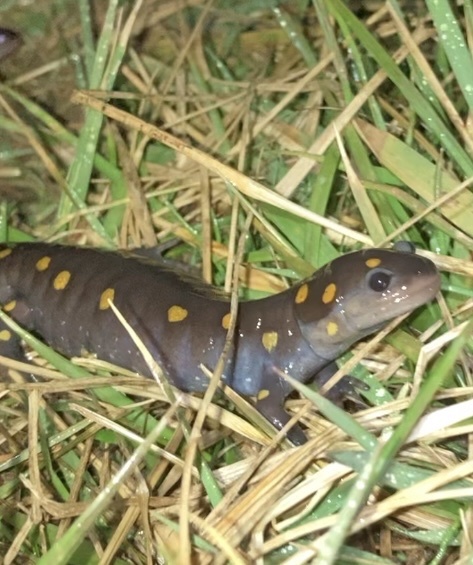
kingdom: Animalia
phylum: Chordata
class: Amphibia
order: Caudata
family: Ambystomatidae
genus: Ambystoma
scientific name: Ambystoma maculatum
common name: Spotted salamander
